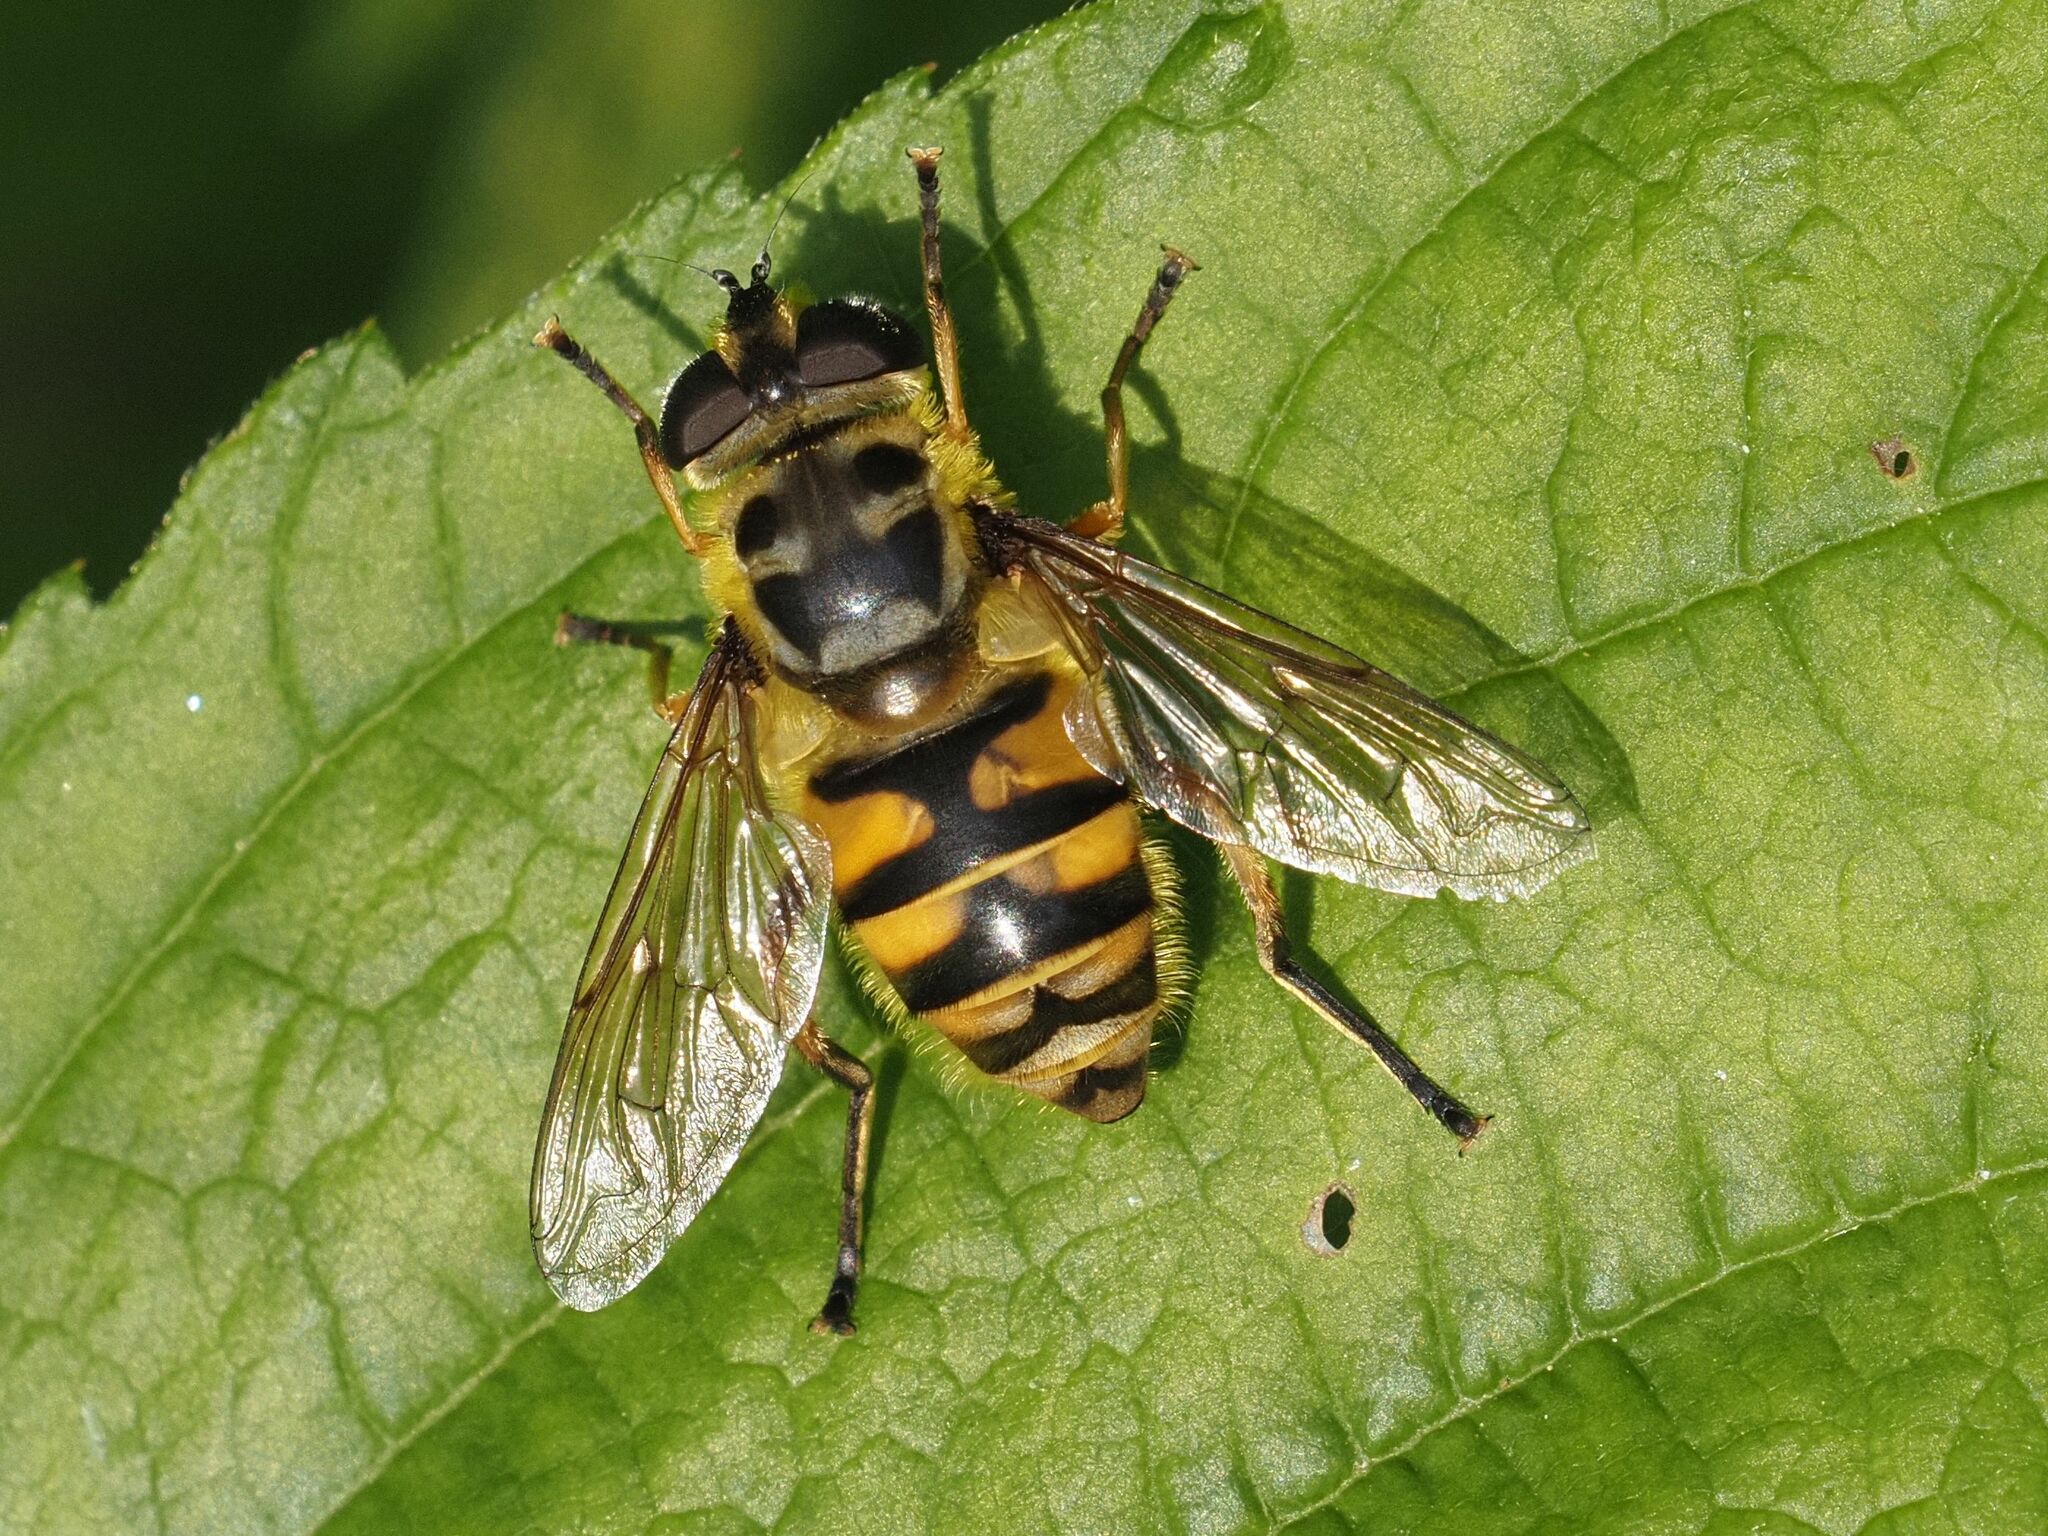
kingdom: Animalia
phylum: Arthropoda
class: Insecta
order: Diptera
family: Syrphidae
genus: Myathropa
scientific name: Myathropa florea
